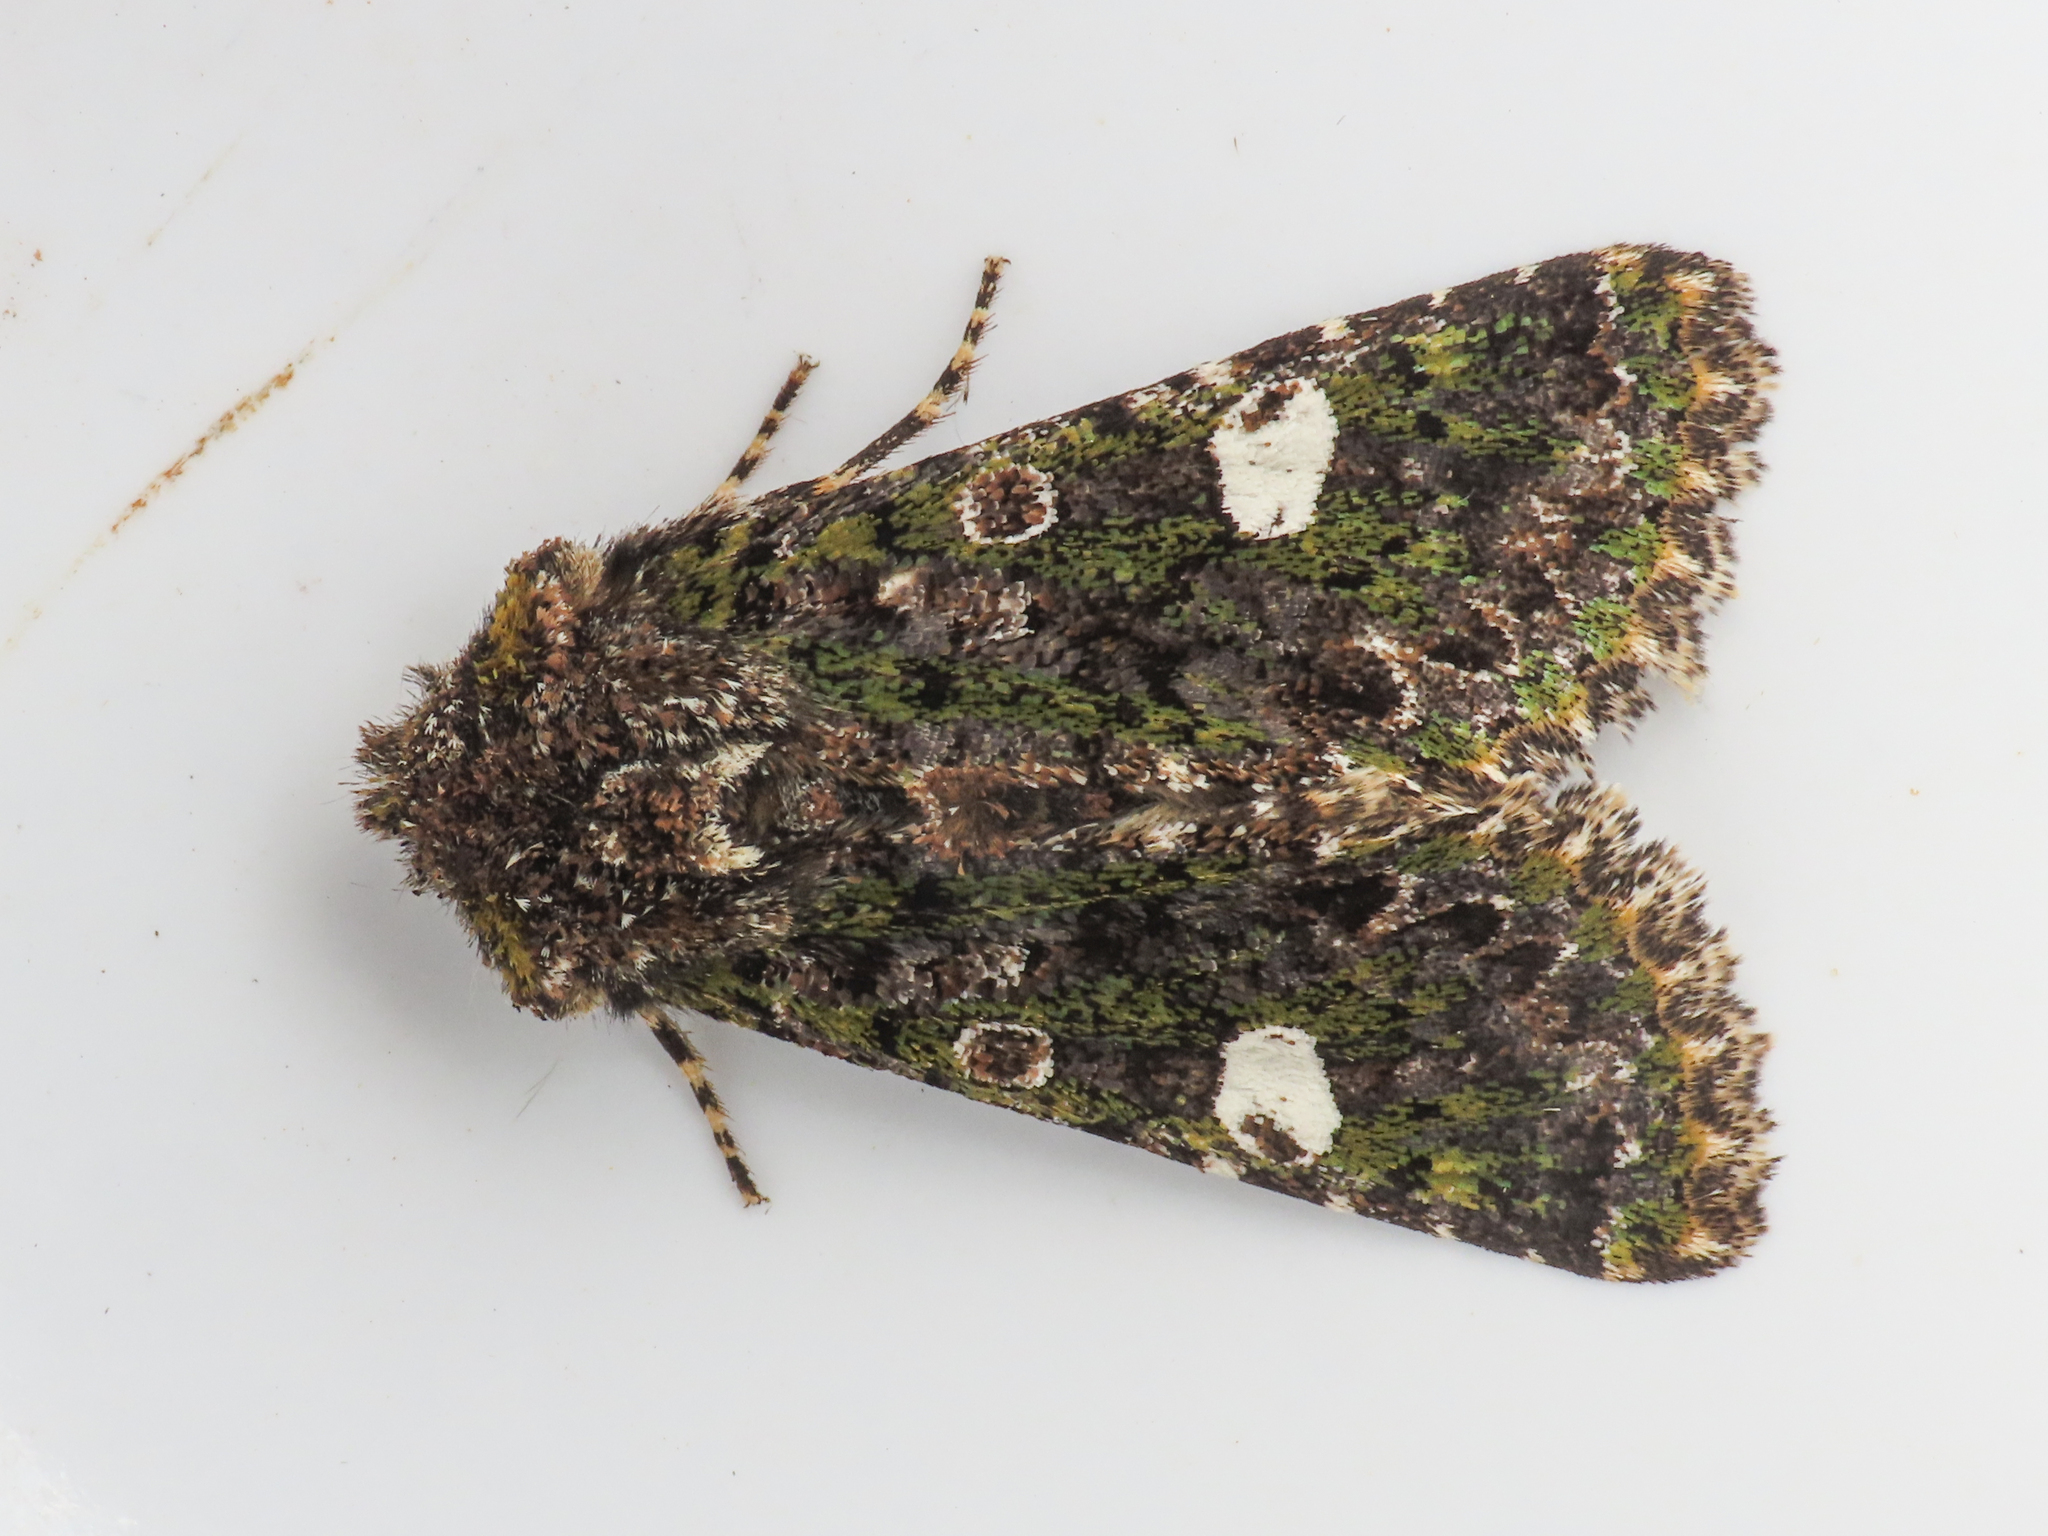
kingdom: Animalia
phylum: Arthropoda
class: Insecta
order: Lepidoptera
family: Noctuidae
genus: Valeria
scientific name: Valeria oleagina
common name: Green-brindled dot
